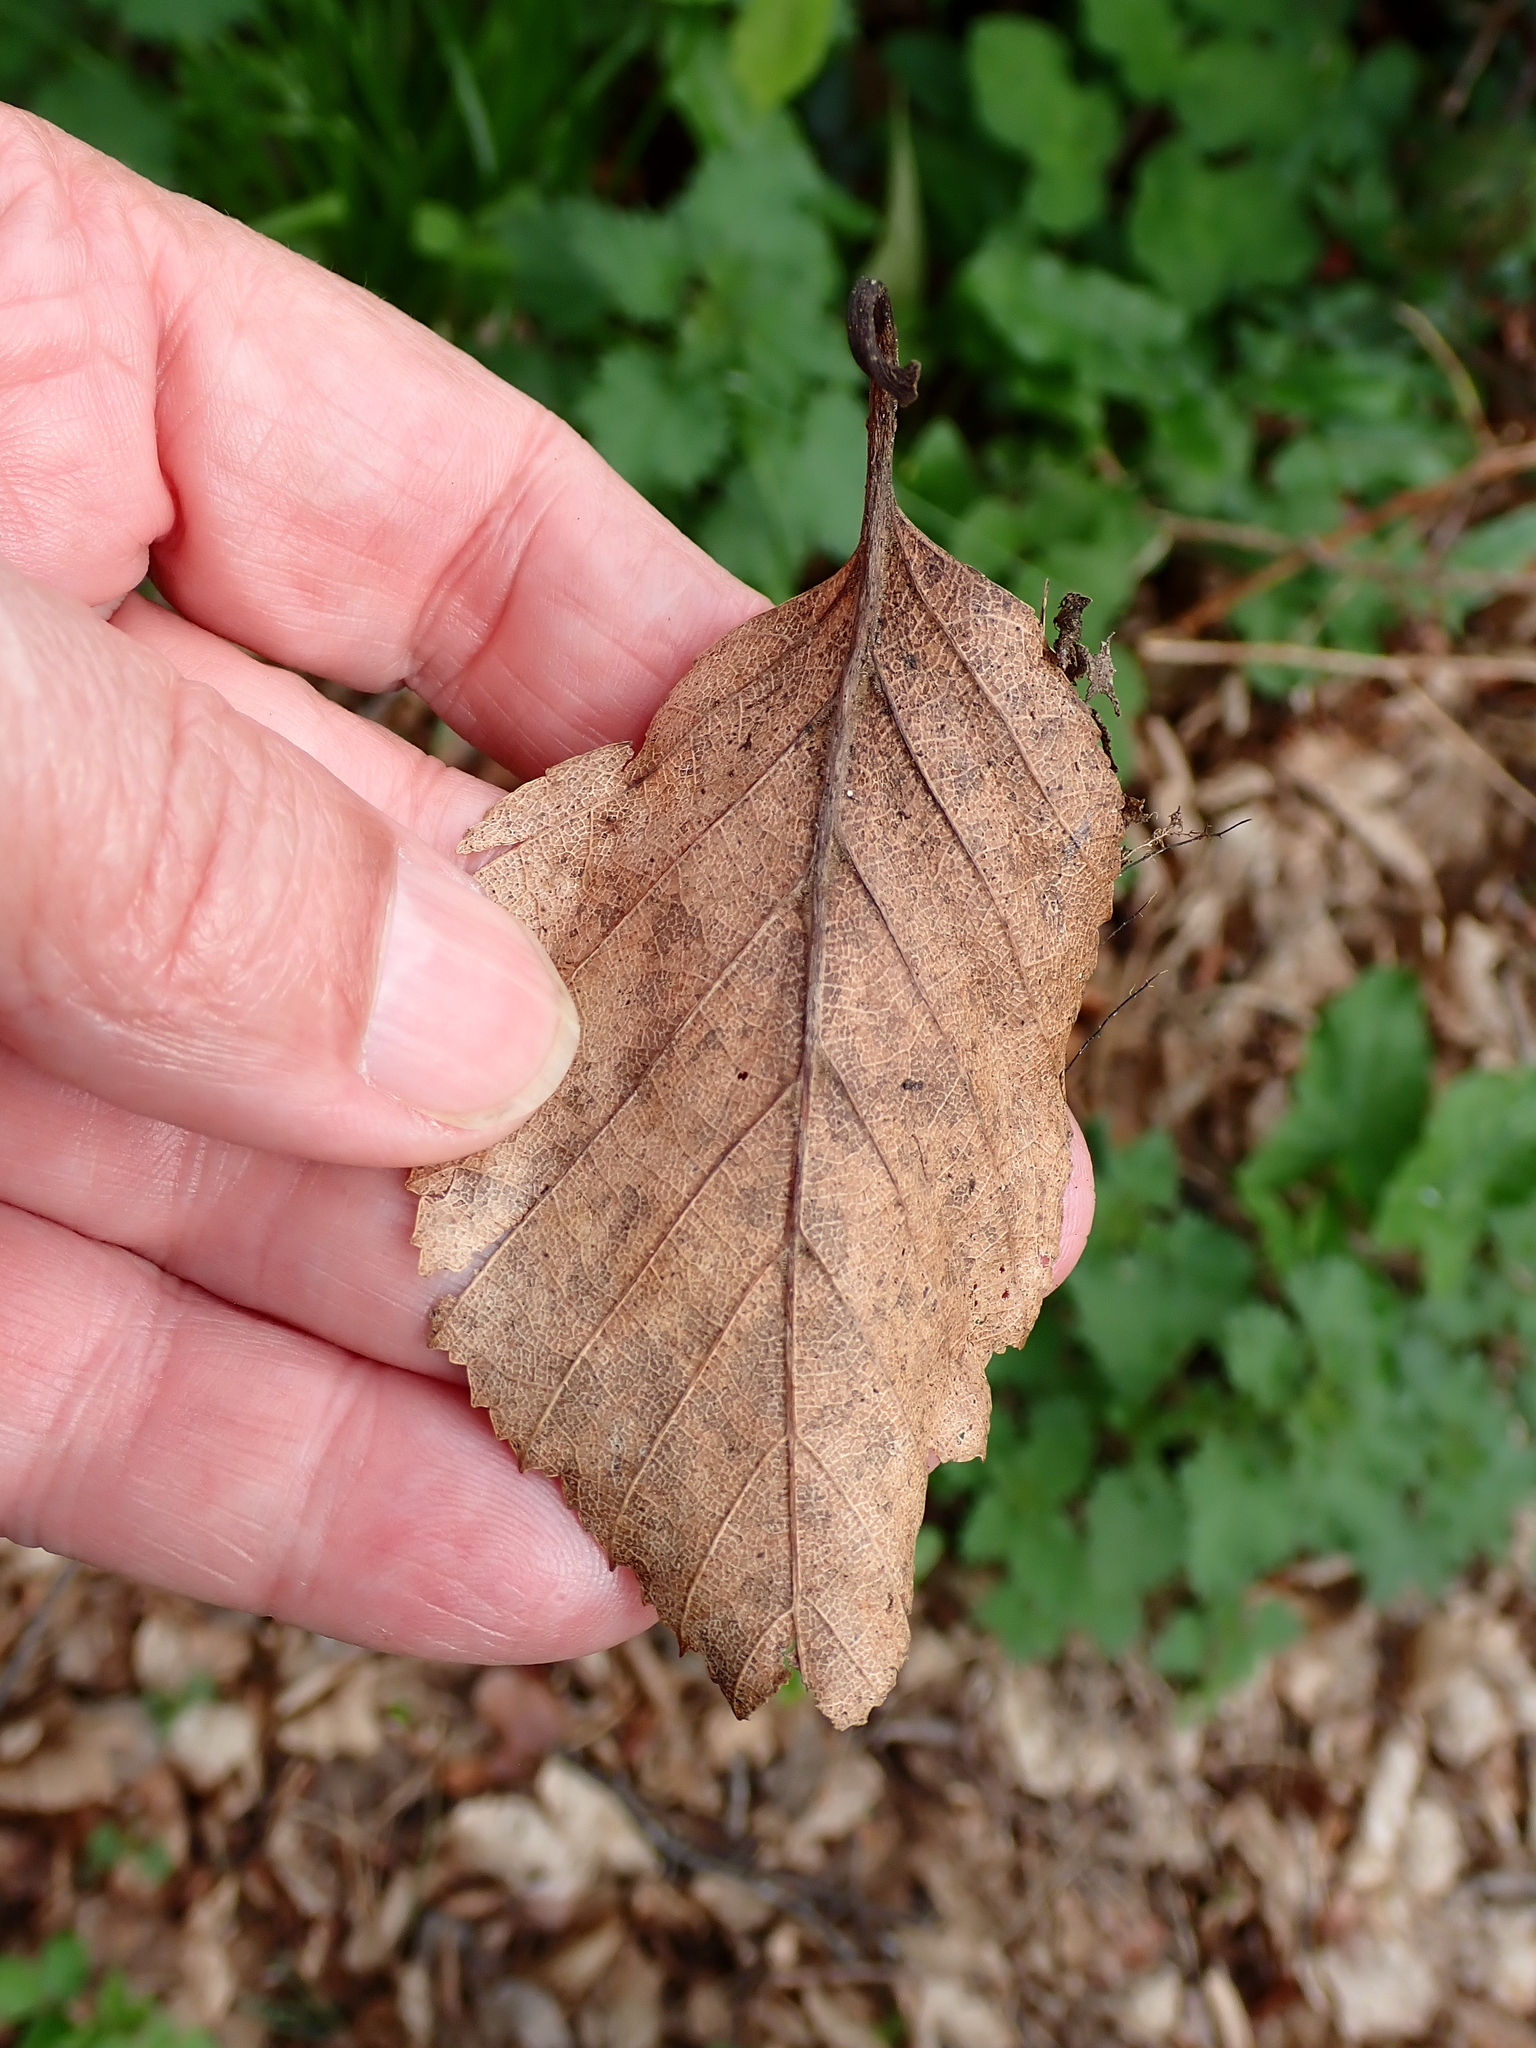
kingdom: Plantae
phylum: Tracheophyta
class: Magnoliopsida
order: Fagales
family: Betulaceae
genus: Carpinus
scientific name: Carpinus betulus
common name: Hornbeam
